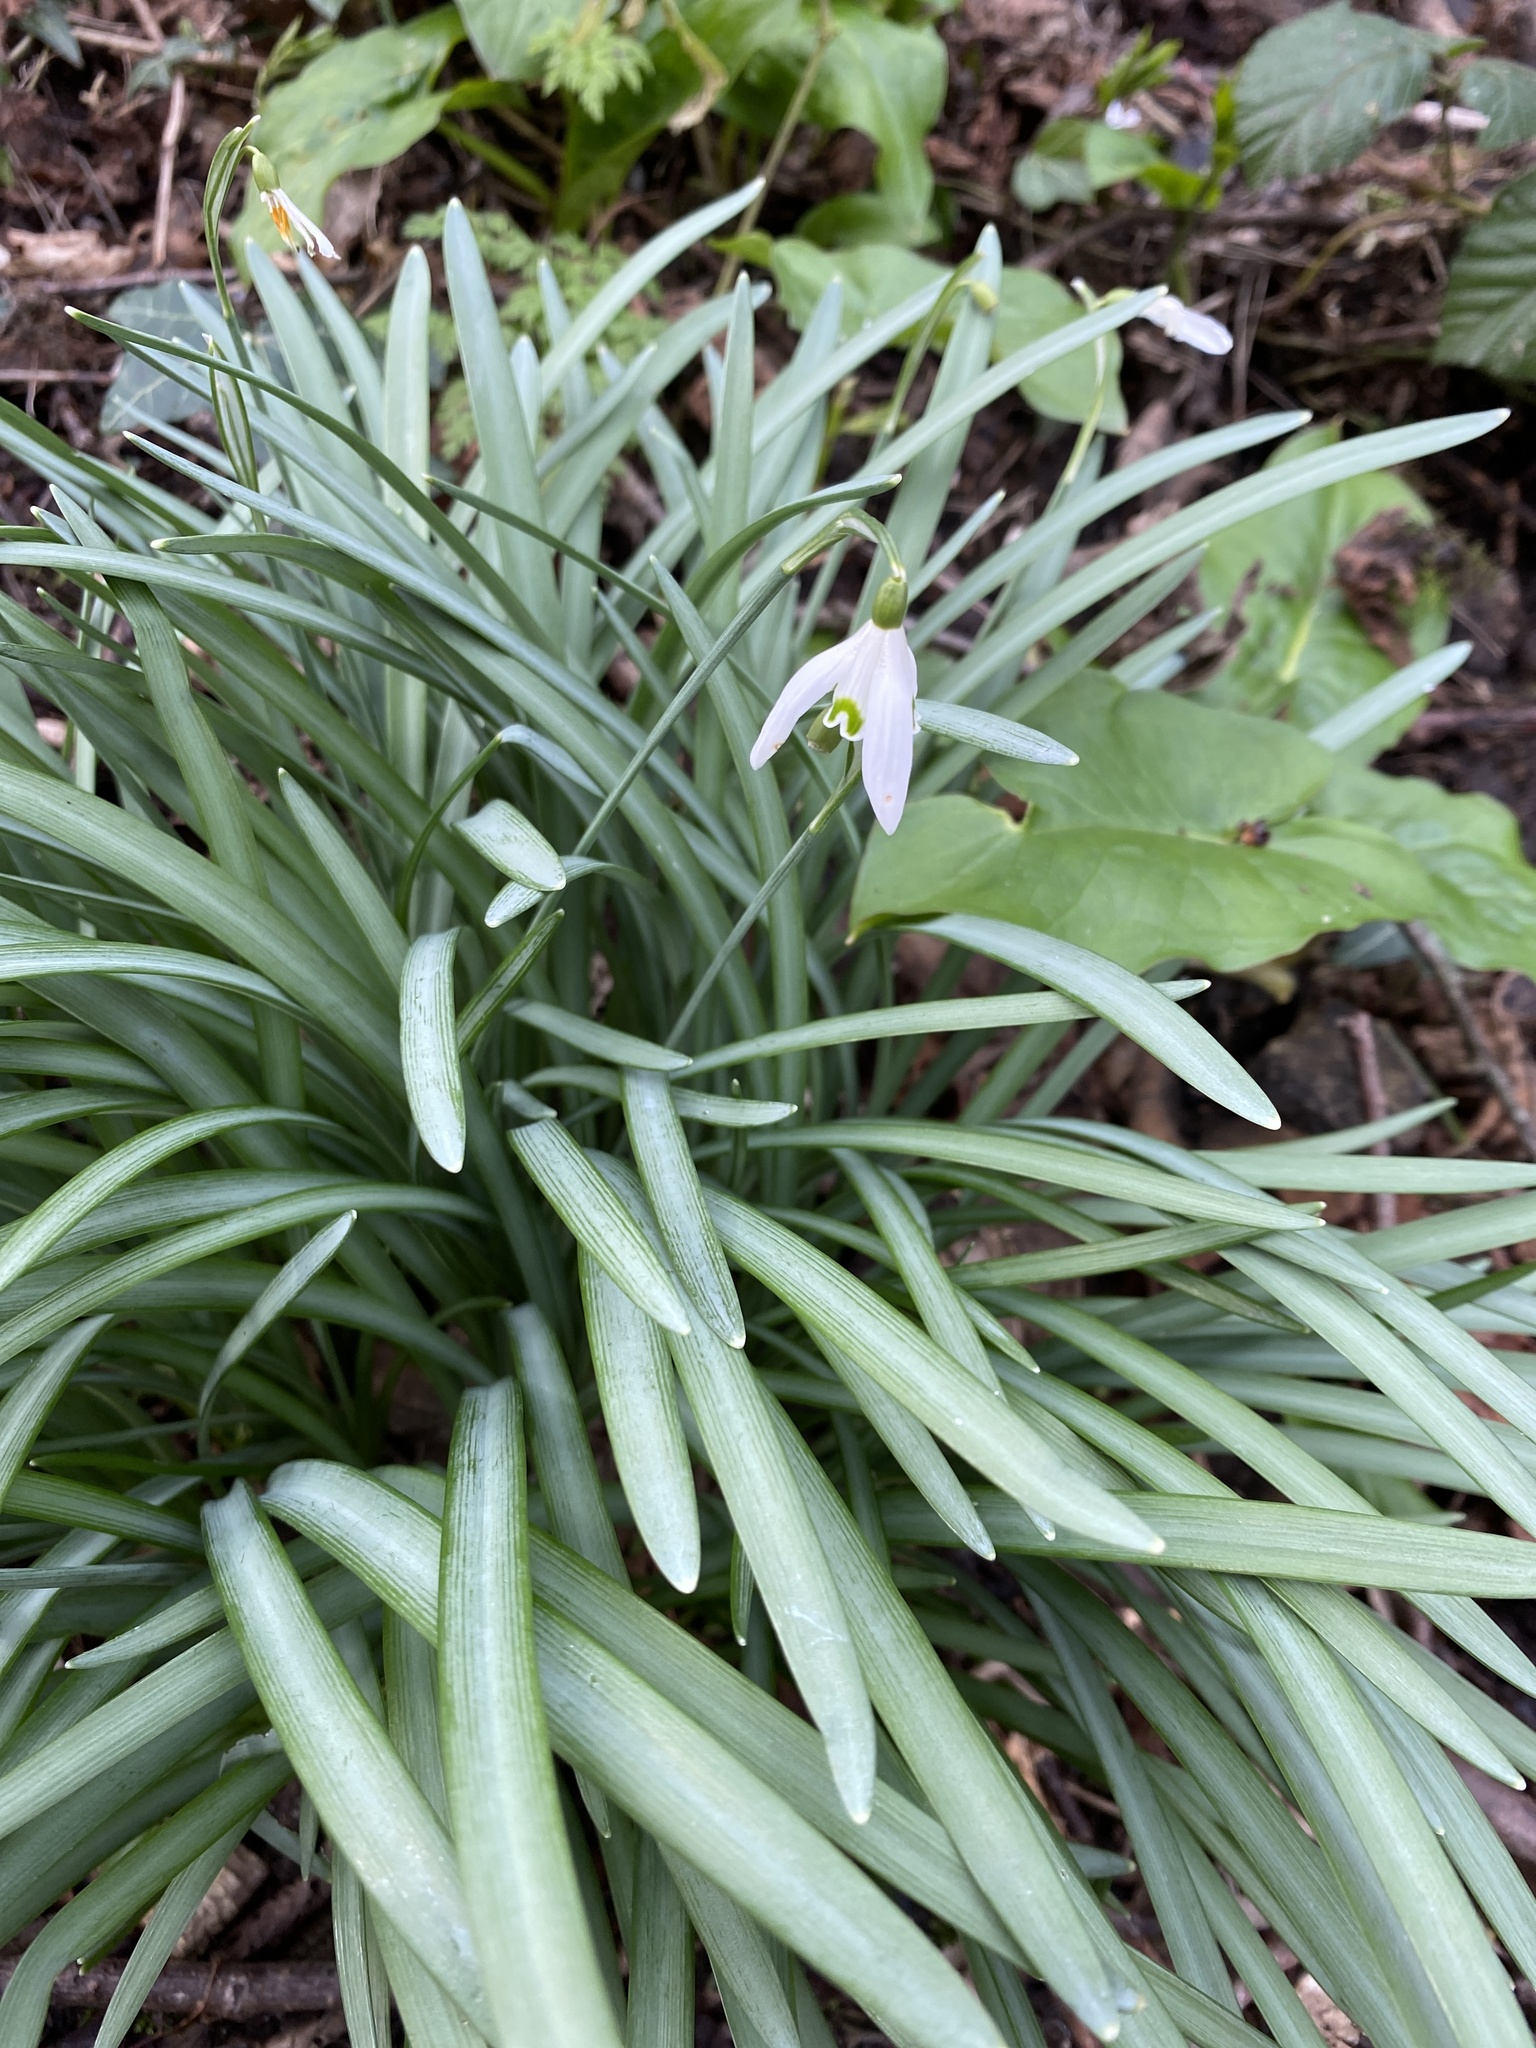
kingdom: Plantae
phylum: Tracheophyta
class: Liliopsida
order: Asparagales
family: Amaryllidaceae
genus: Galanthus
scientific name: Galanthus nivalis
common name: Snowdrop
